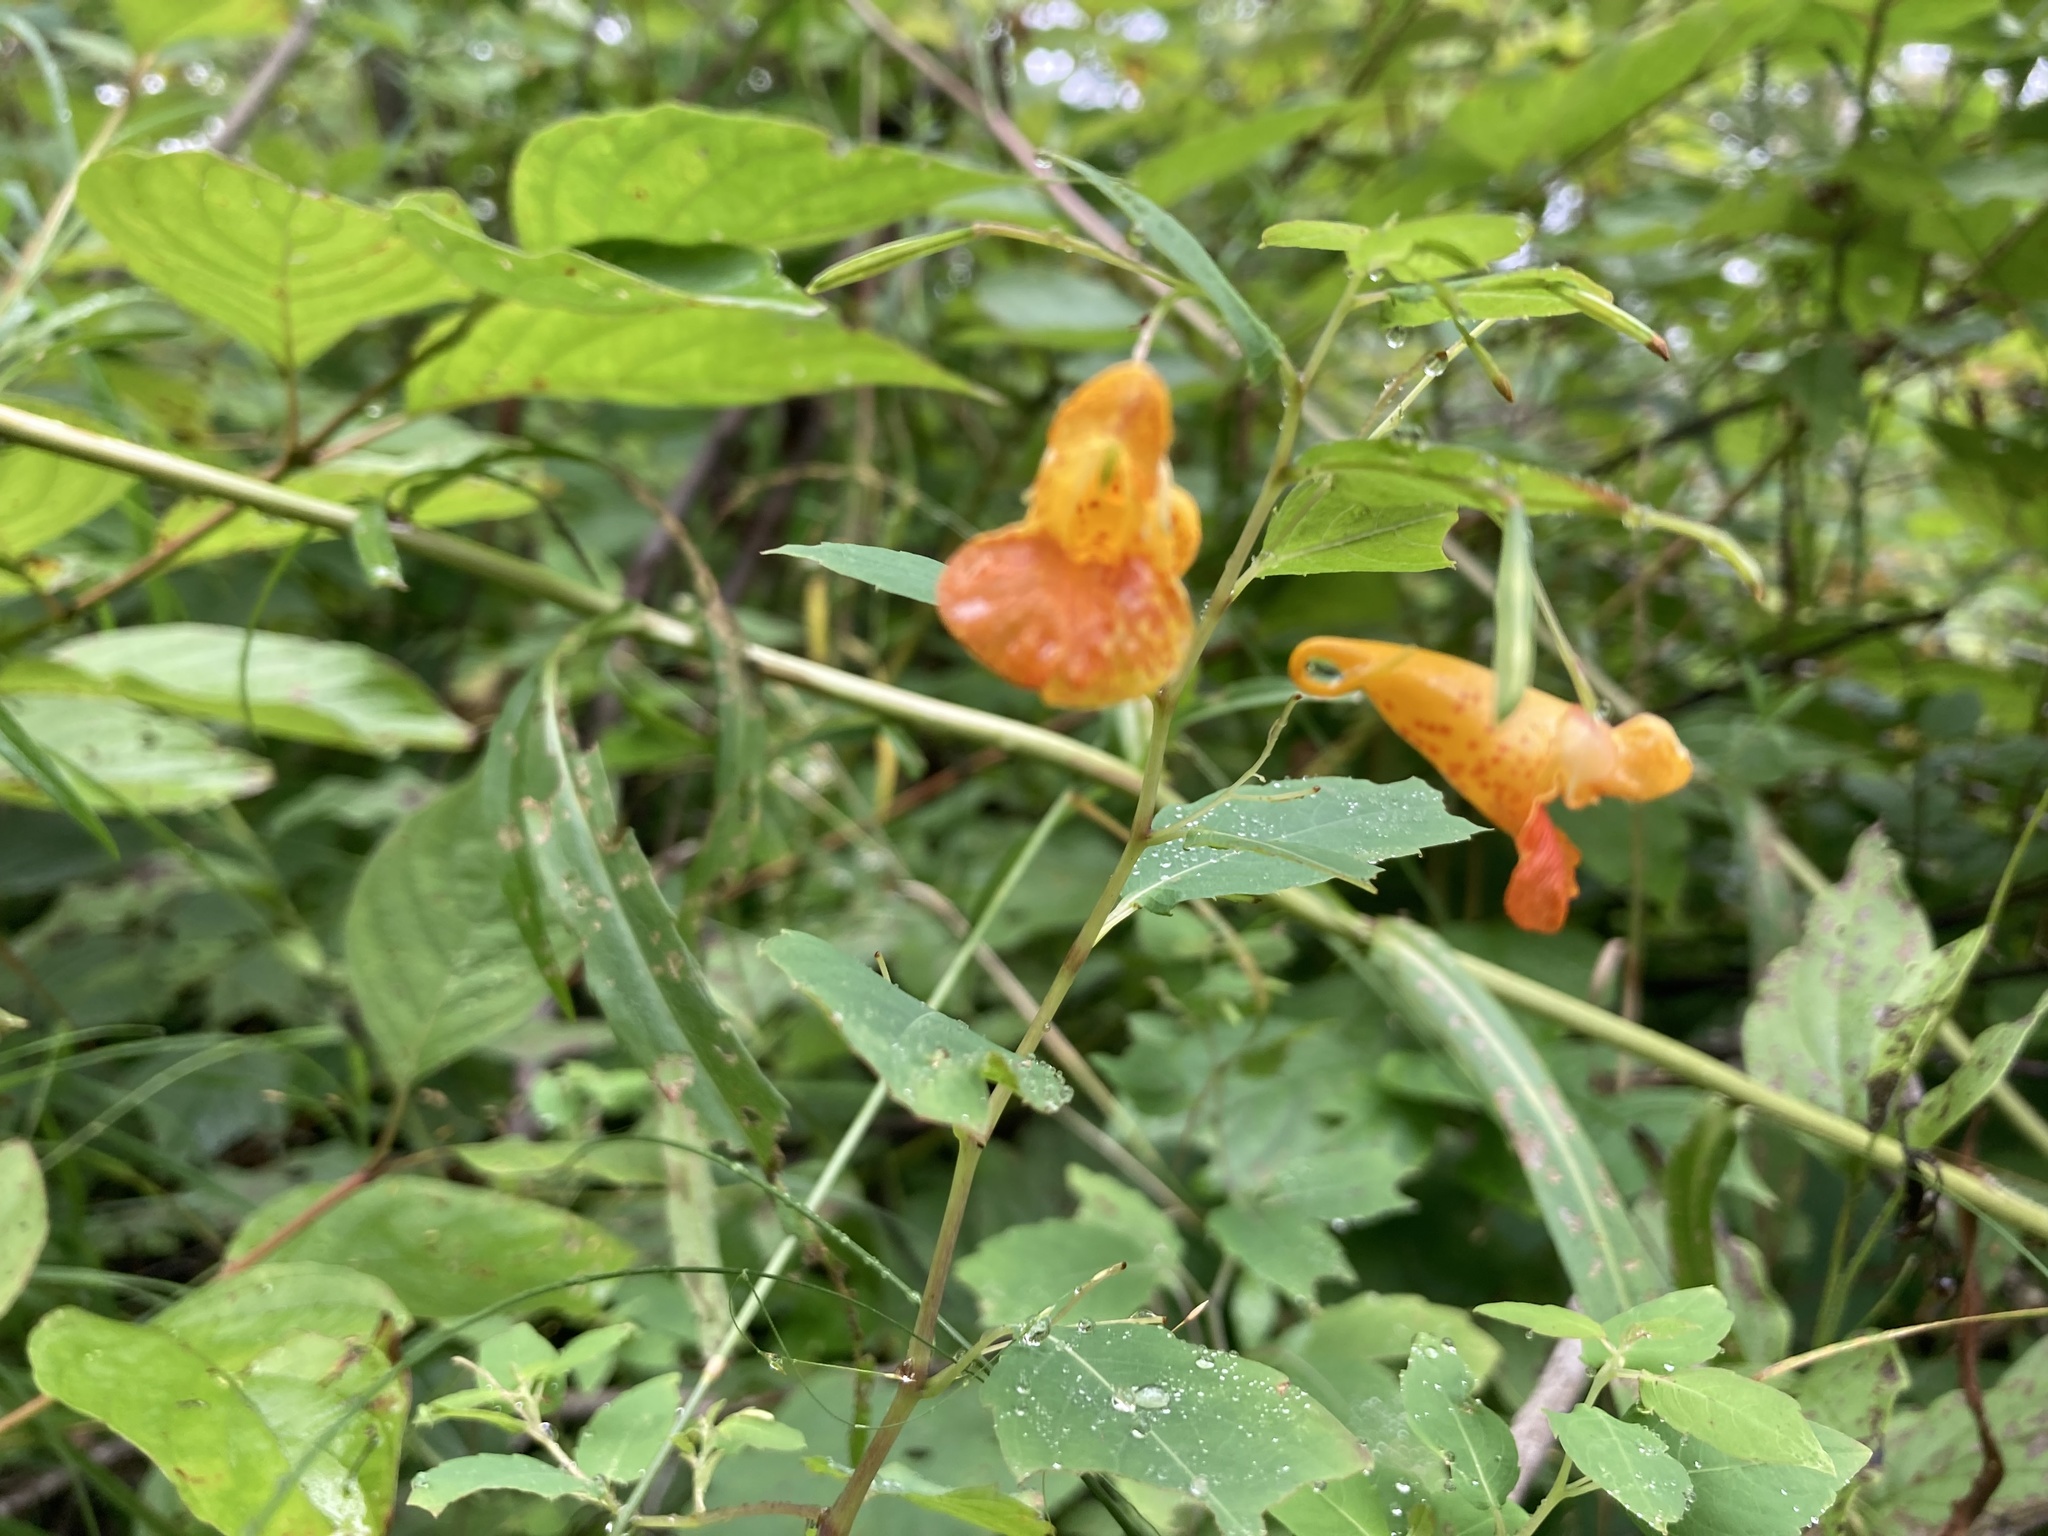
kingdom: Plantae
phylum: Tracheophyta
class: Magnoliopsida
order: Ericales
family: Balsaminaceae
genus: Impatiens
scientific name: Impatiens capensis
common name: Orange balsam
